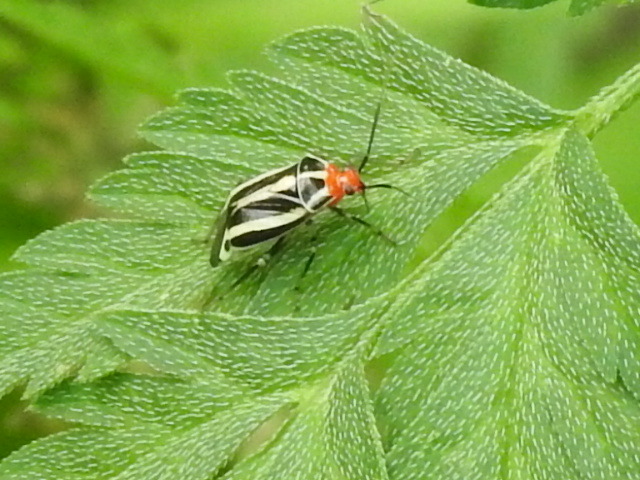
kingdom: Animalia
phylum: Arthropoda
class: Insecta
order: Hemiptera
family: Miridae
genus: Poecilocapsus
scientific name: Poecilocapsus lineatus
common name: Four-lined plant bug
